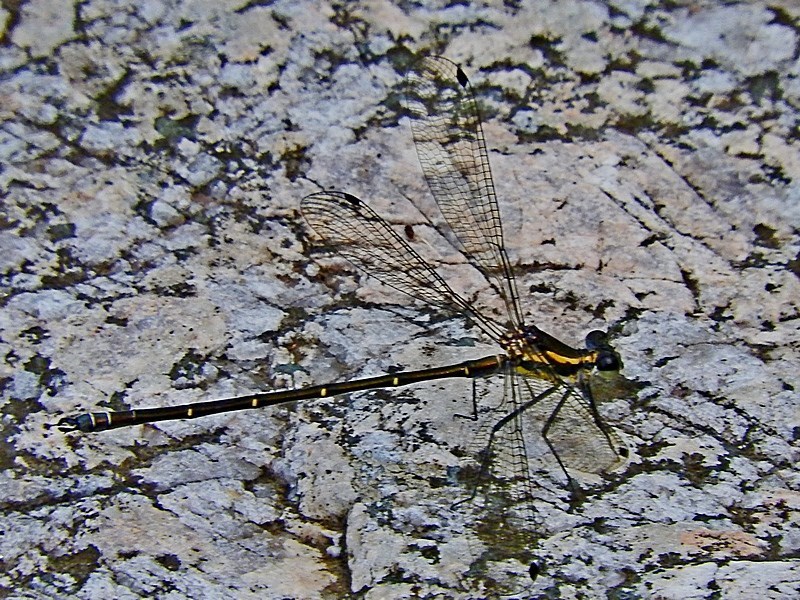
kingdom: Animalia
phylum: Arthropoda
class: Insecta
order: Odonata
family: Argiolestidae
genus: Austroargiolestes
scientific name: Austroargiolestes icteromelas
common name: Common flatwing
